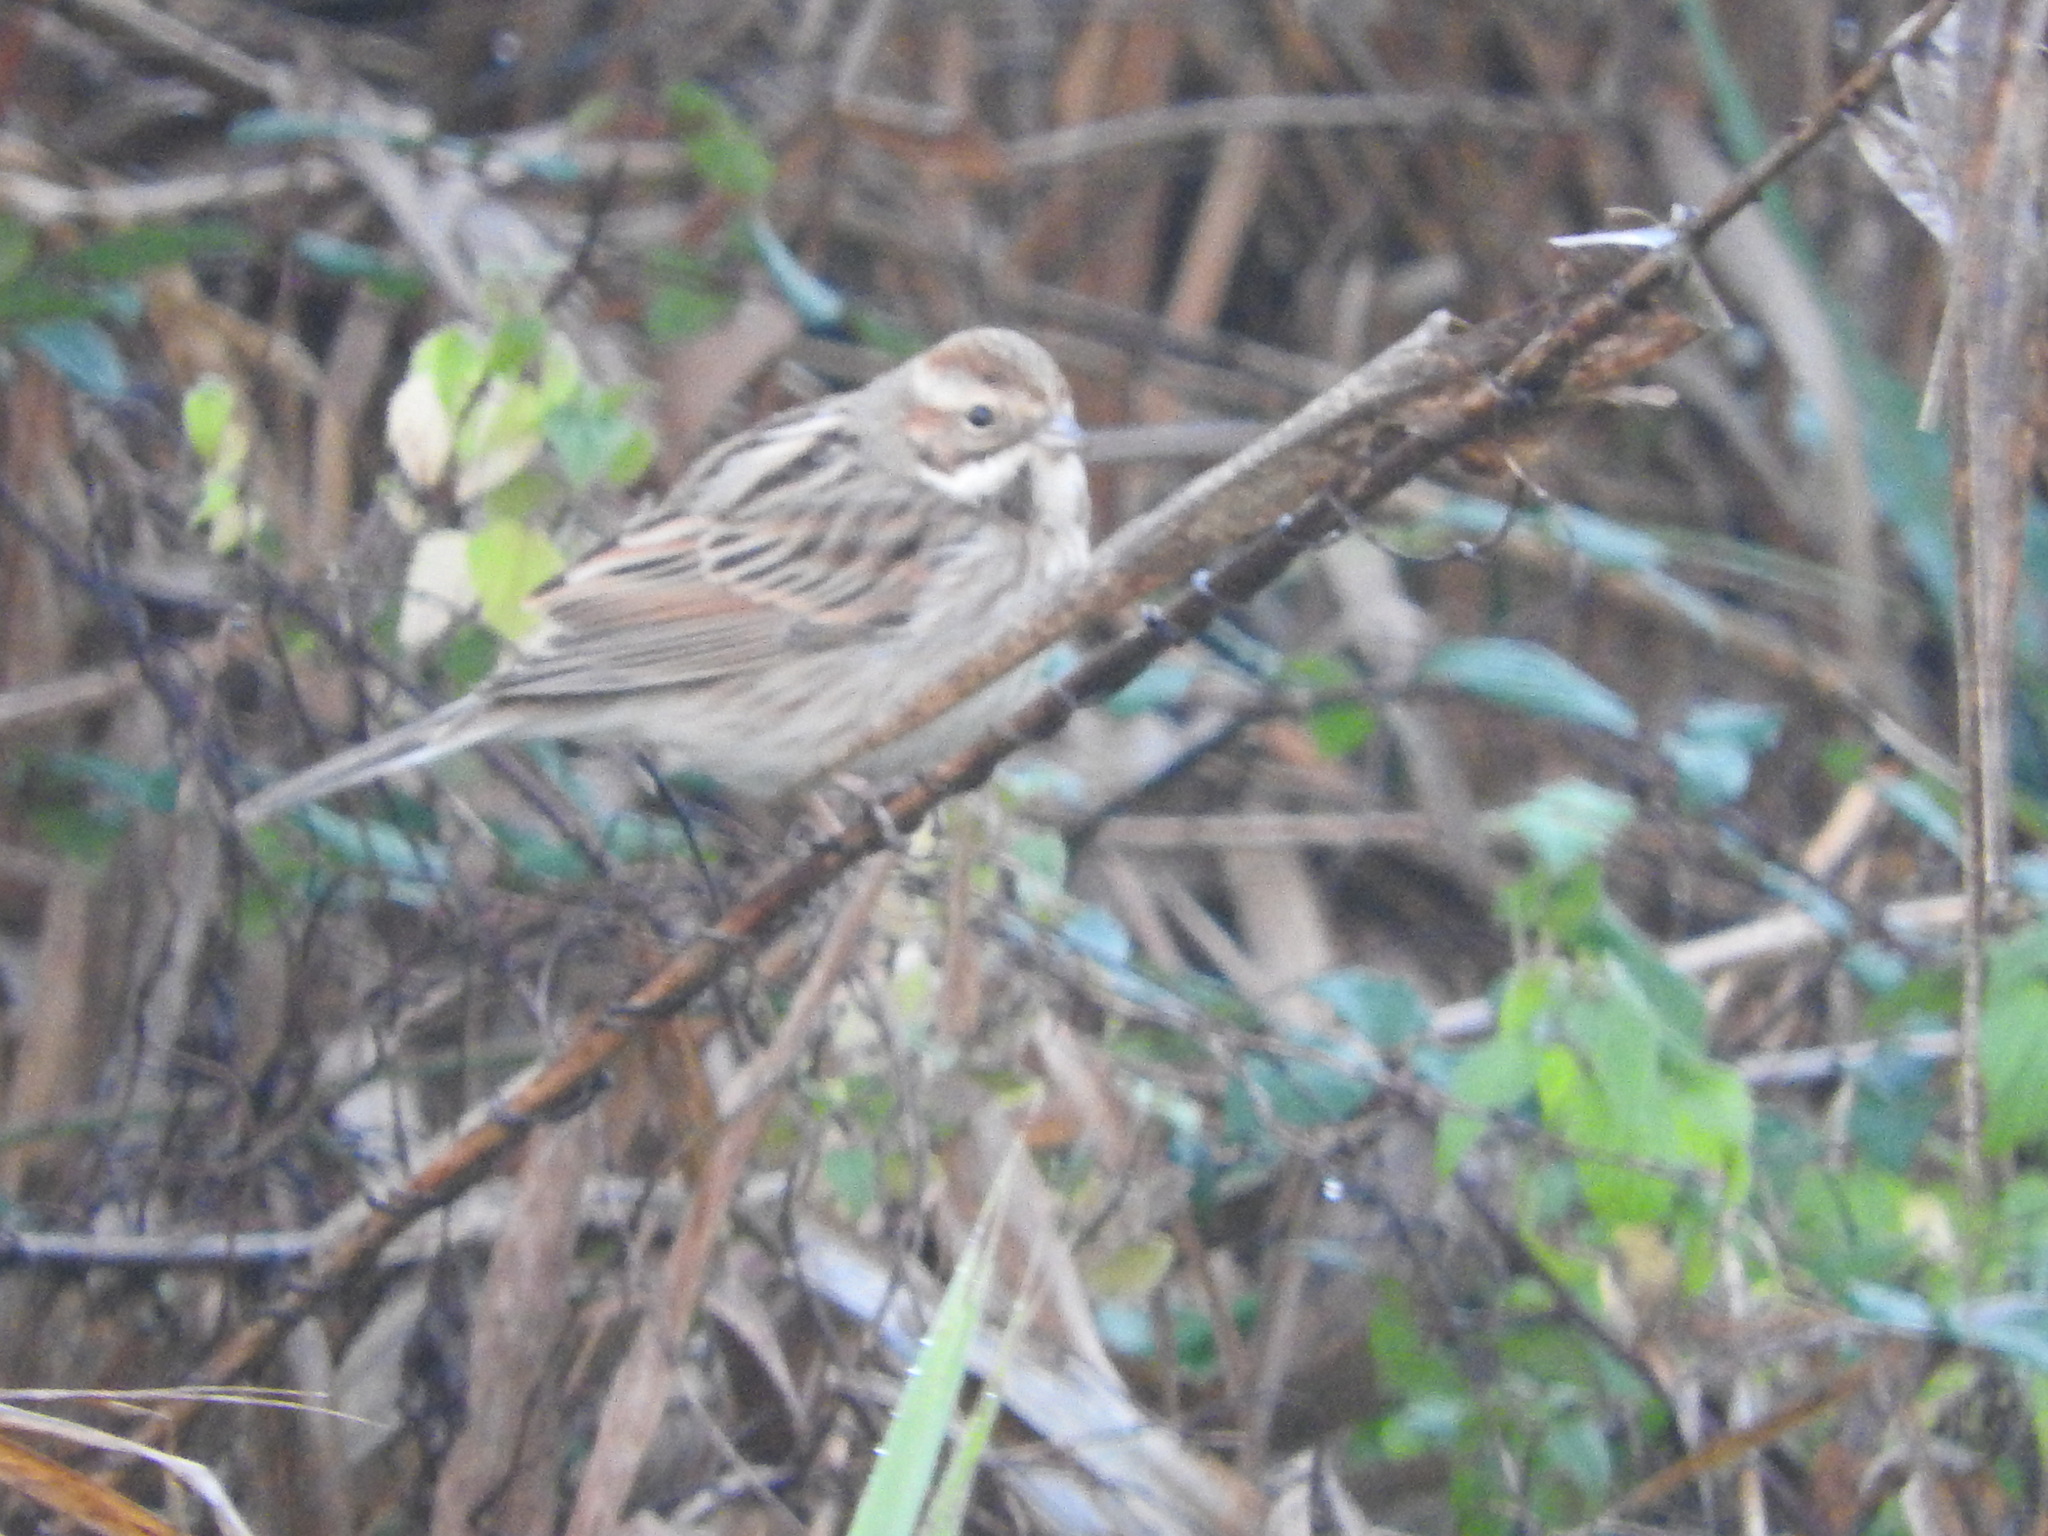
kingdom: Animalia
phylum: Chordata
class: Aves
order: Passeriformes
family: Emberizidae
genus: Emberiza
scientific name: Emberiza schoeniclus
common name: Reed bunting
